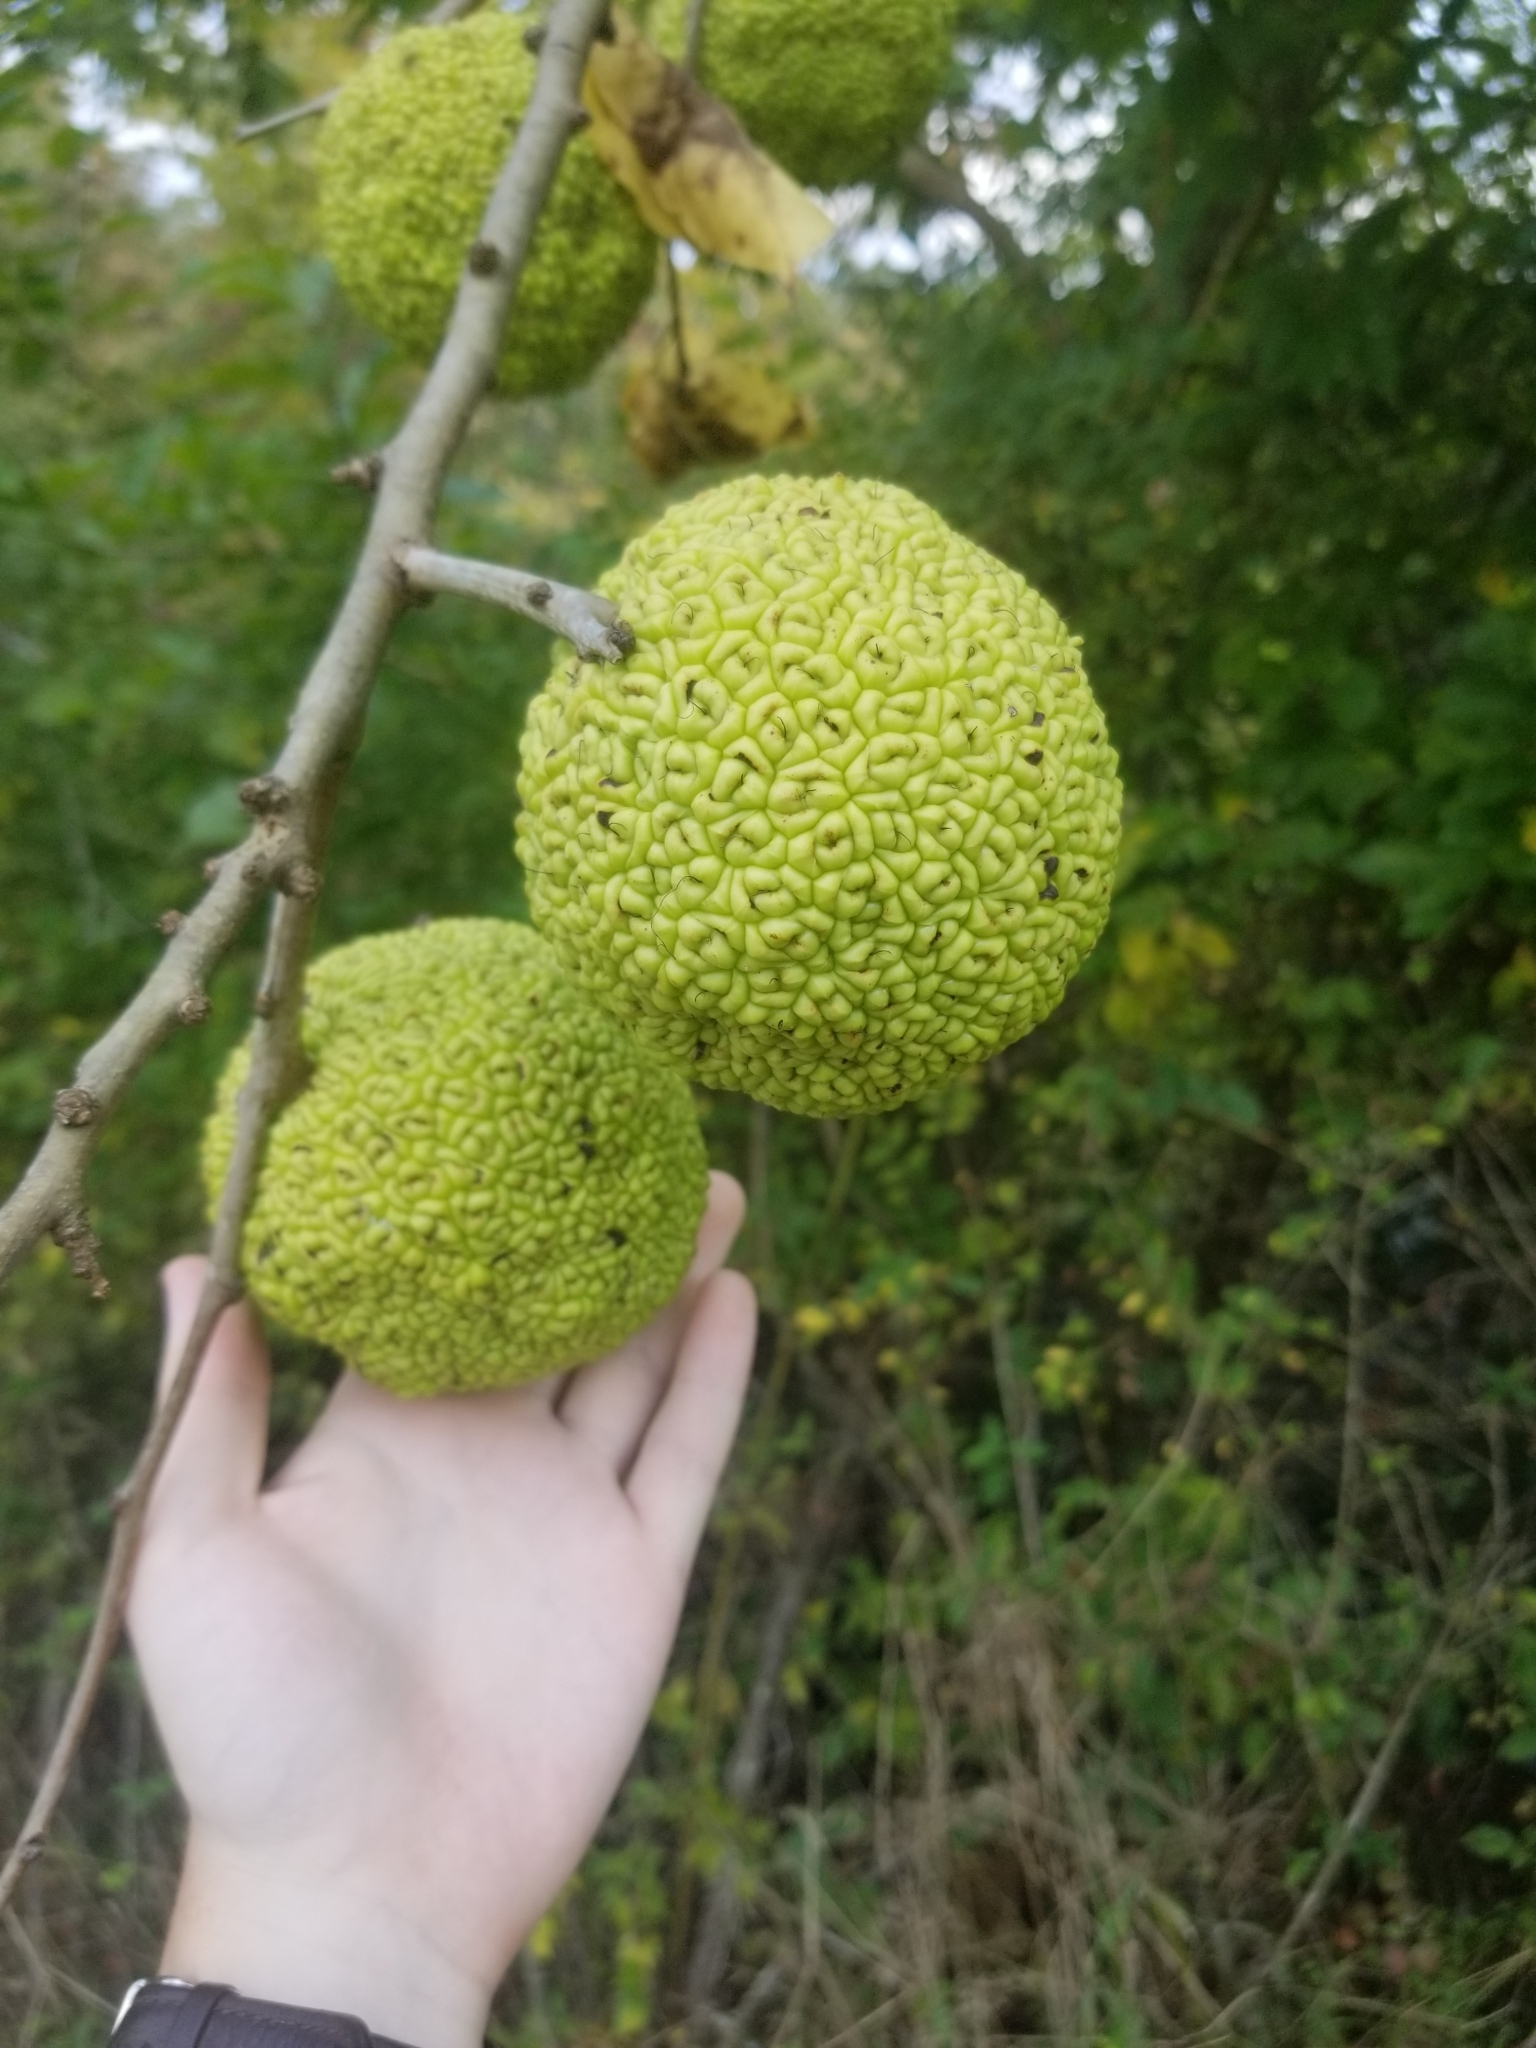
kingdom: Plantae
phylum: Tracheophyta
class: Magnoliopsida
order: Rosales
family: Moraceae
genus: Maclura
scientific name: Maclura pomifera
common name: Osage-orange
